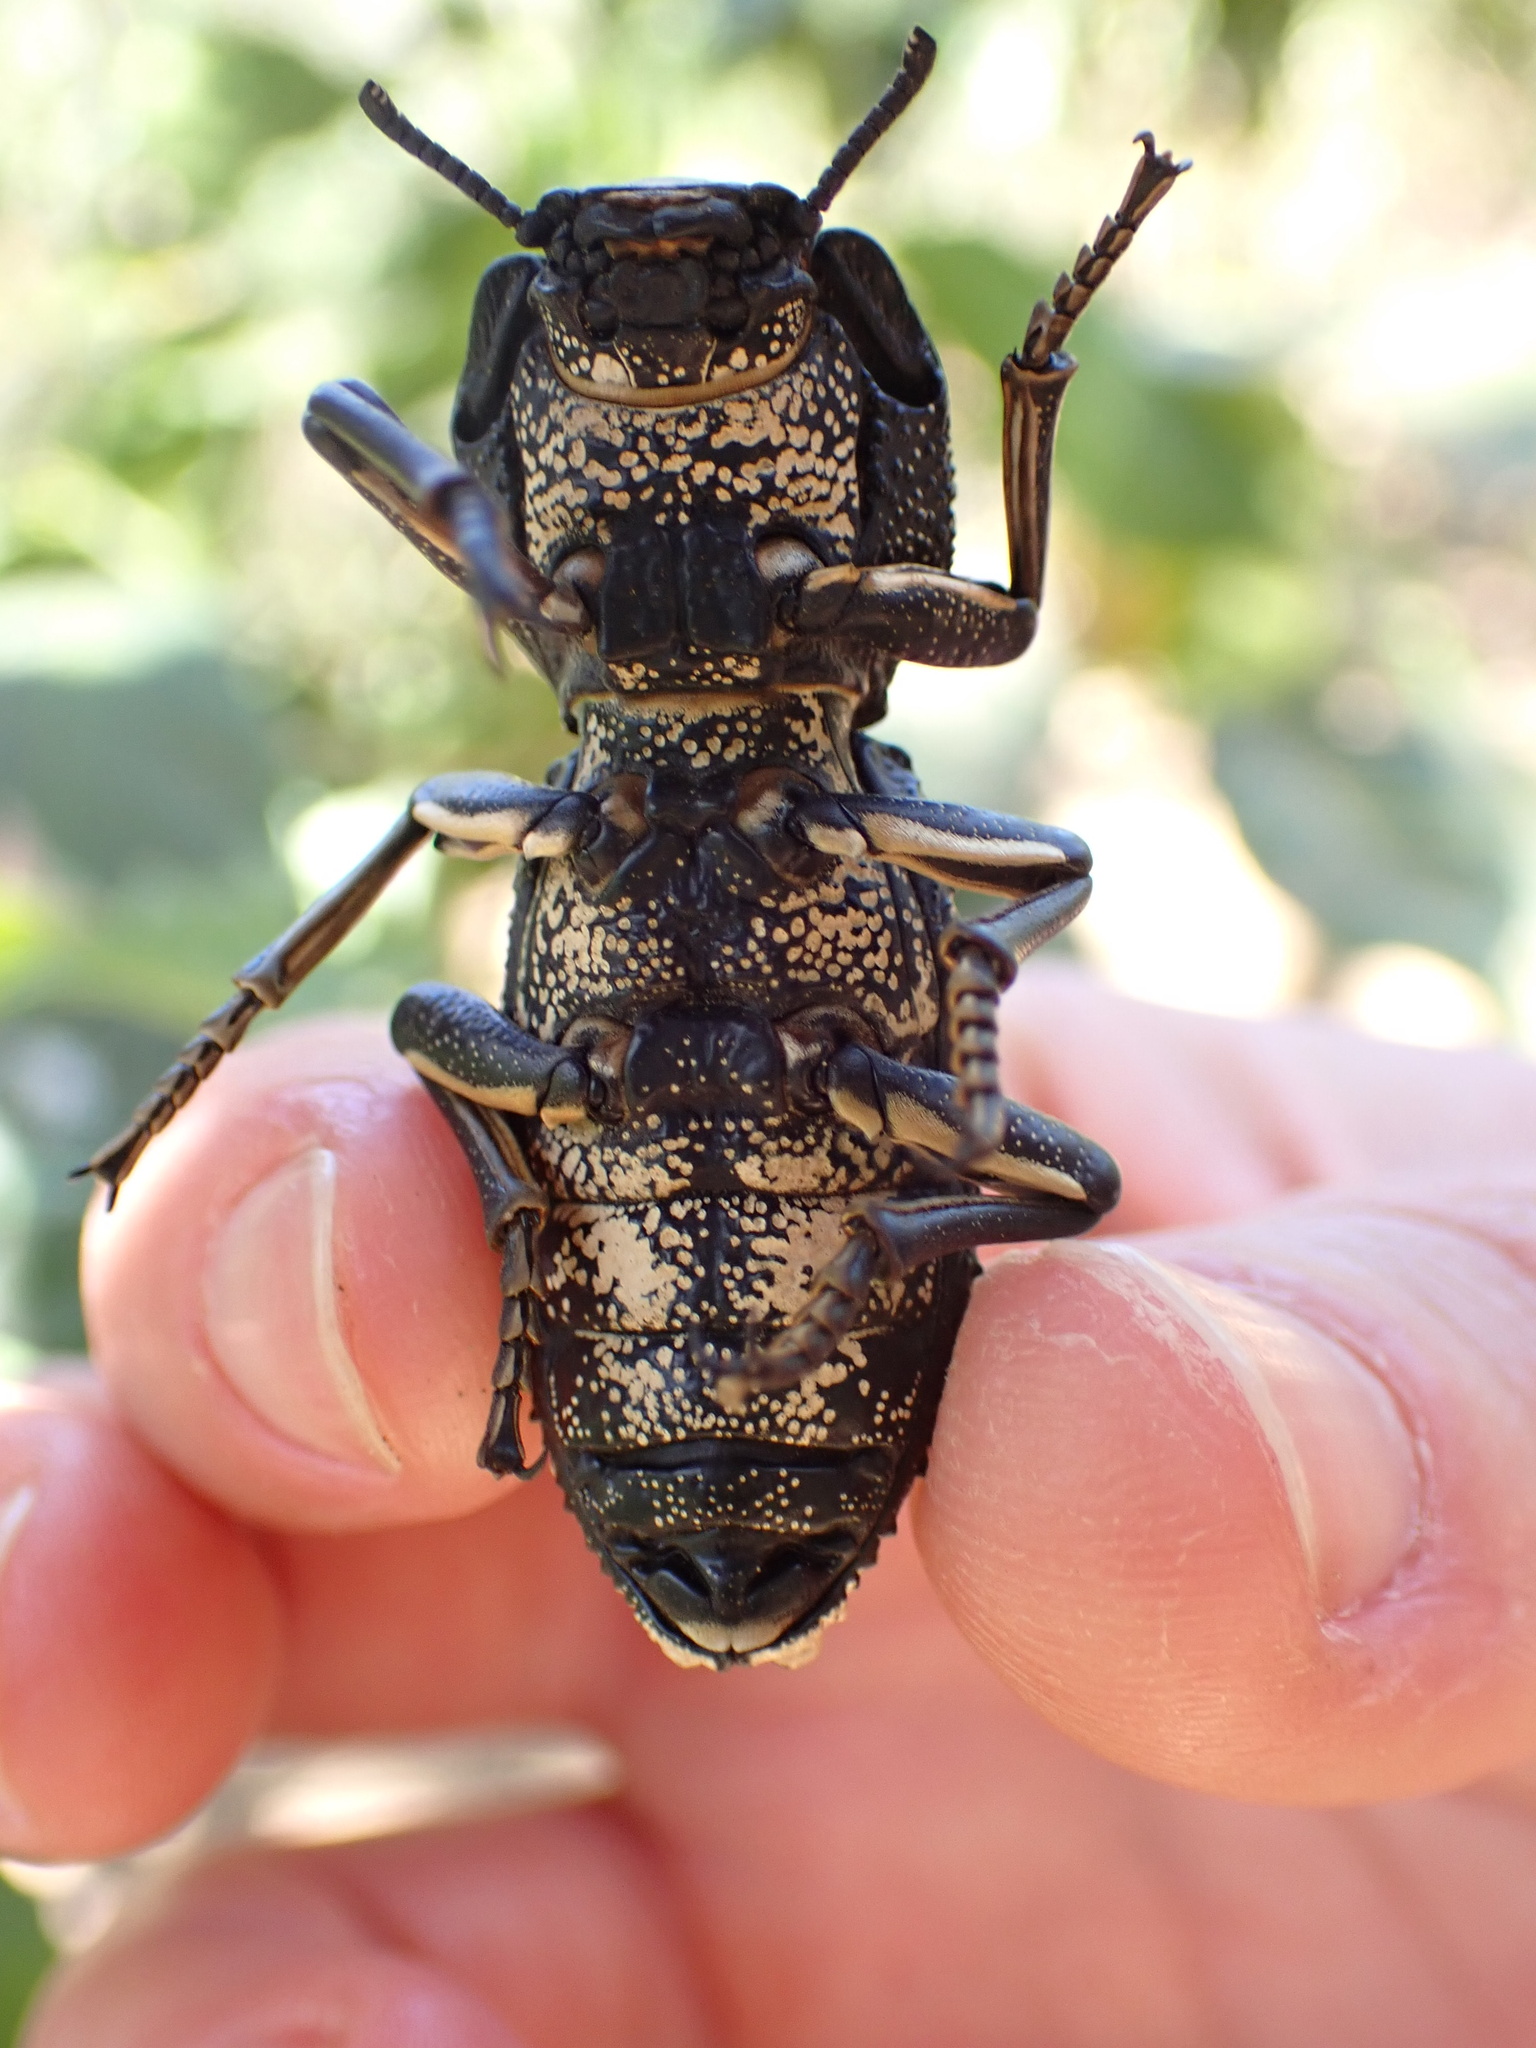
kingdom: Animalia
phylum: Arthropoda
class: Insecta
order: Coleoptera
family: Zopheridae
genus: Zopherus
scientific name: Zopherus
